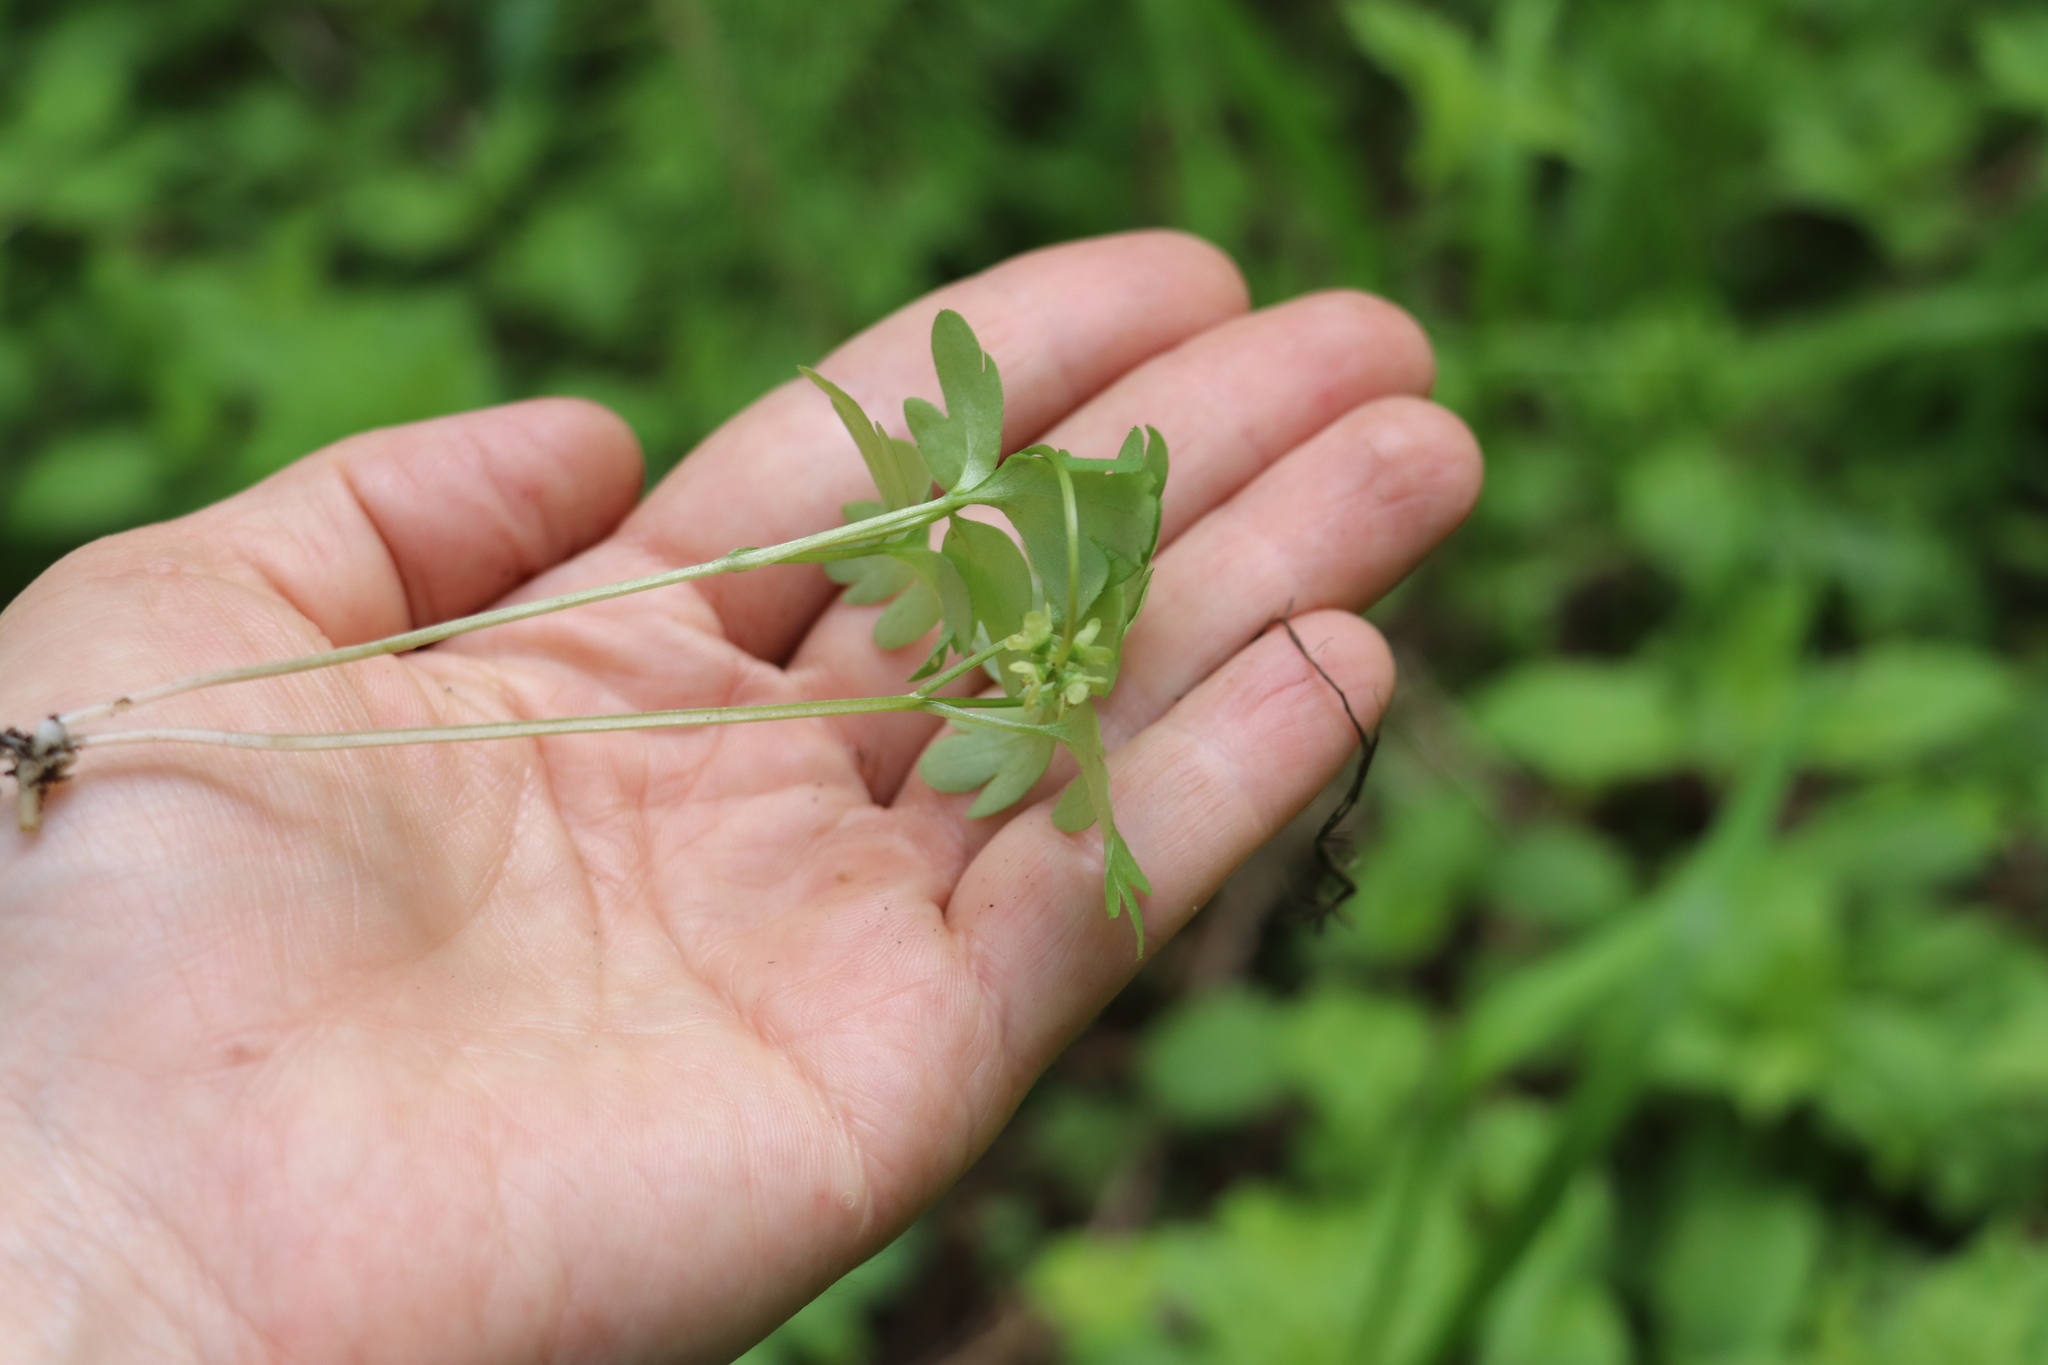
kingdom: Plantae
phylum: Tracheophyta
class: Magnoliopsida
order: Dipsacales
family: Viburnaceae
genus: Adoxa
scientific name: Adoxa moschatellina
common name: Moschatel
